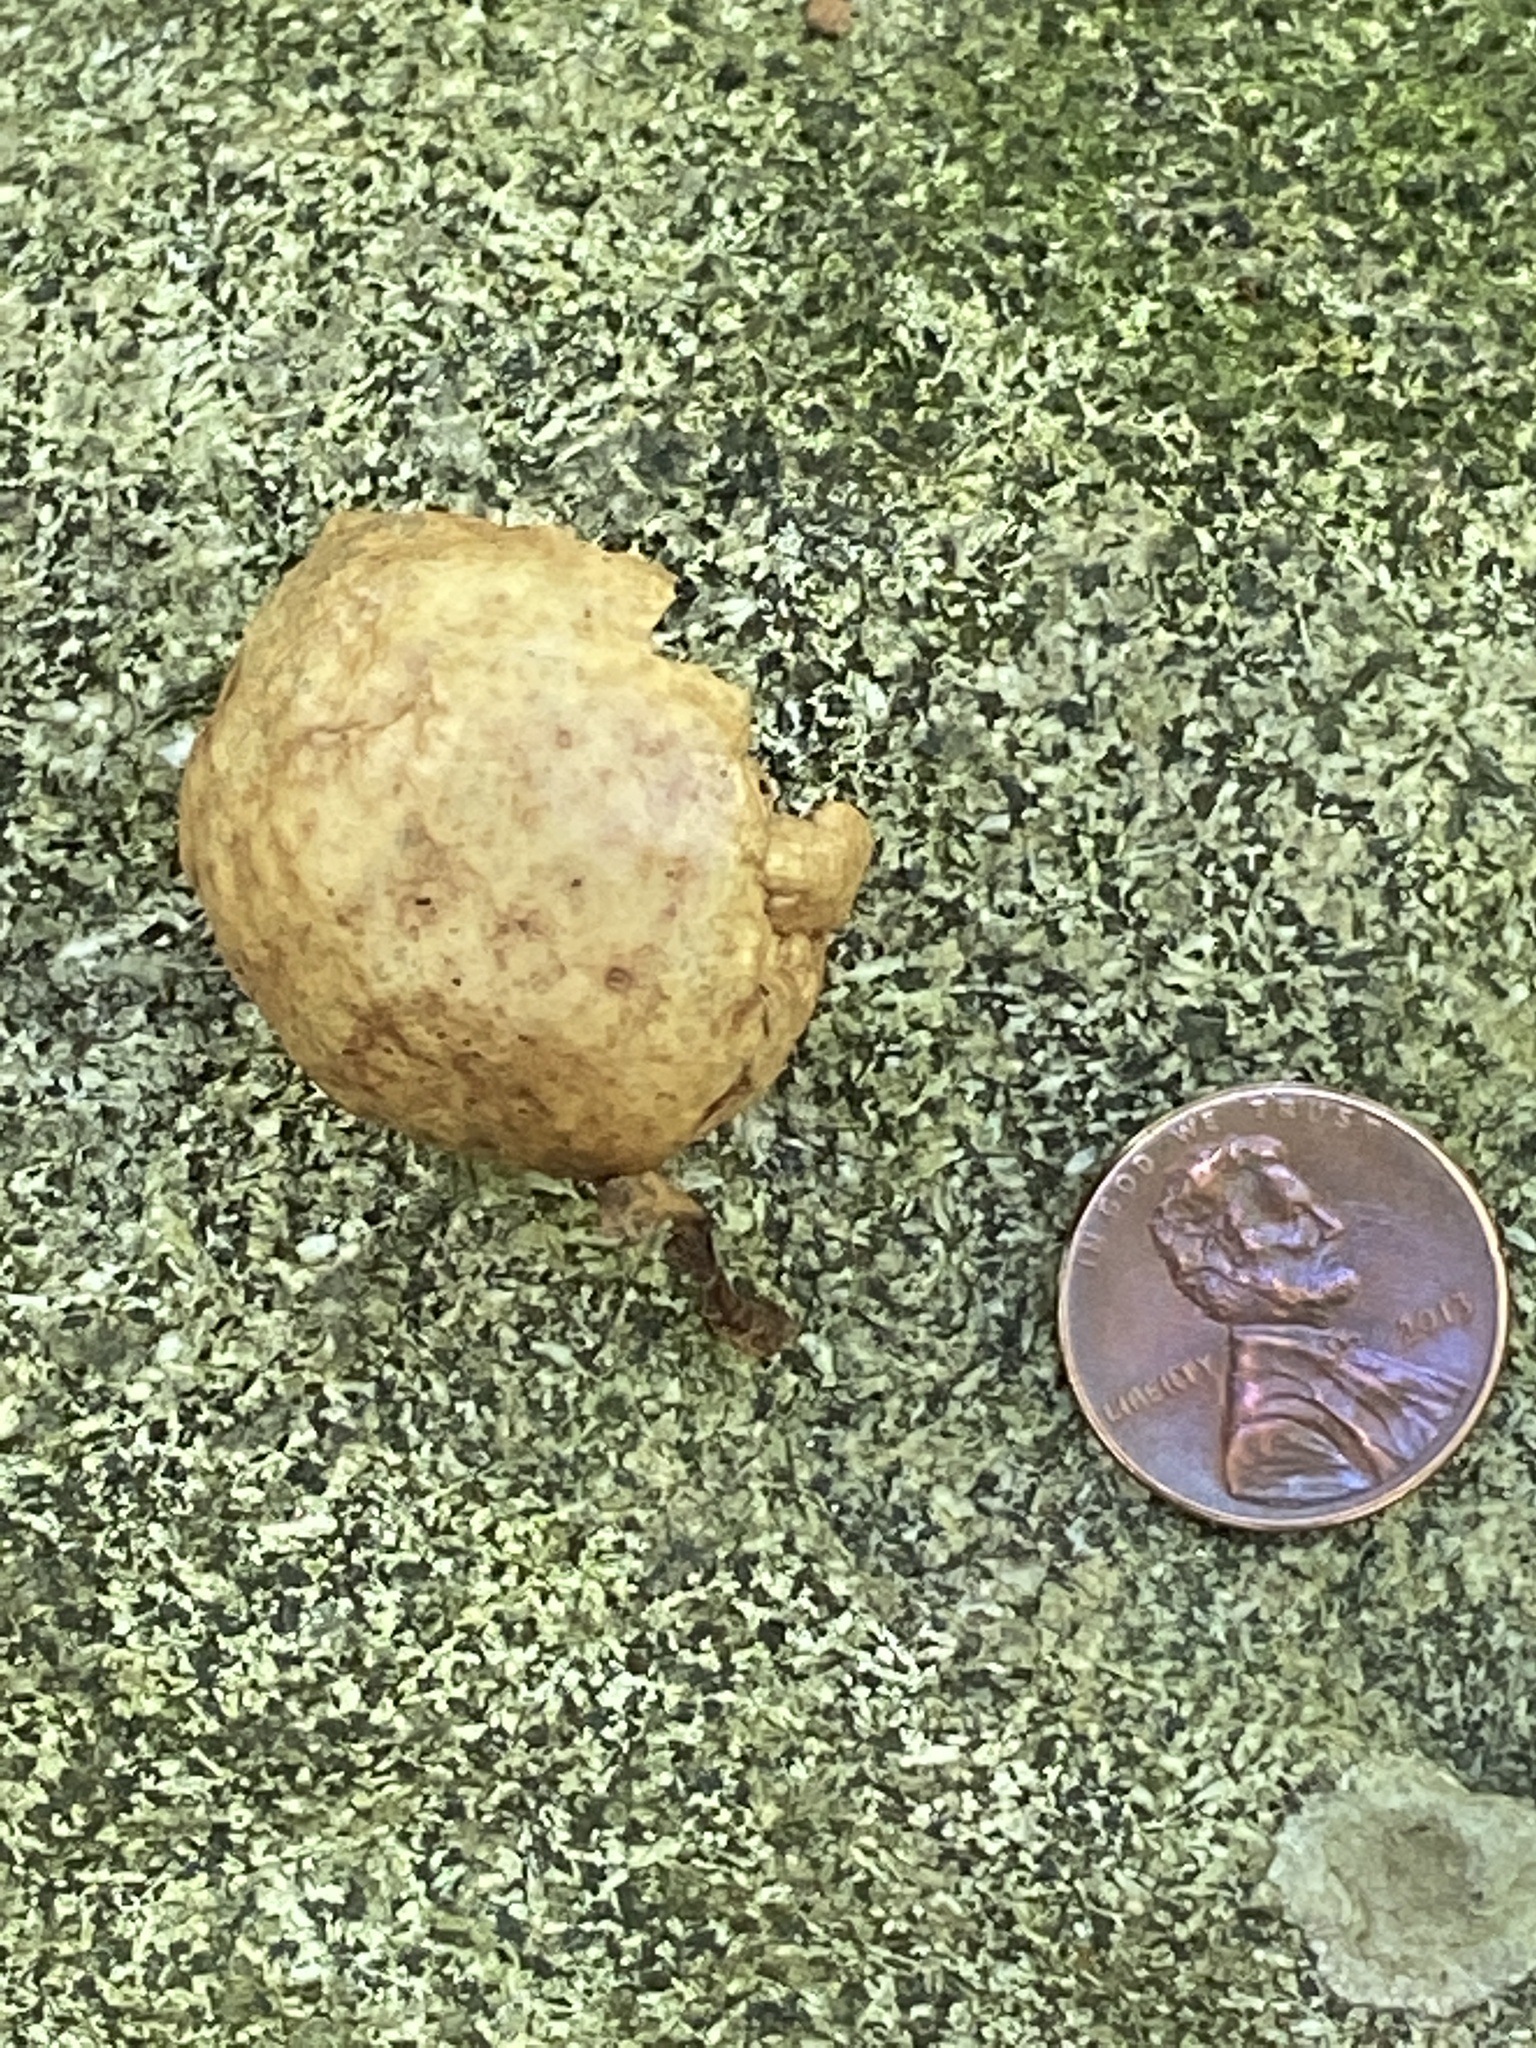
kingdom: Animalia
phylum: Arthropoda
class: Insecta
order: Hymenoptera
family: Cynipidae
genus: Amphibolips
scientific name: Amphibolips
